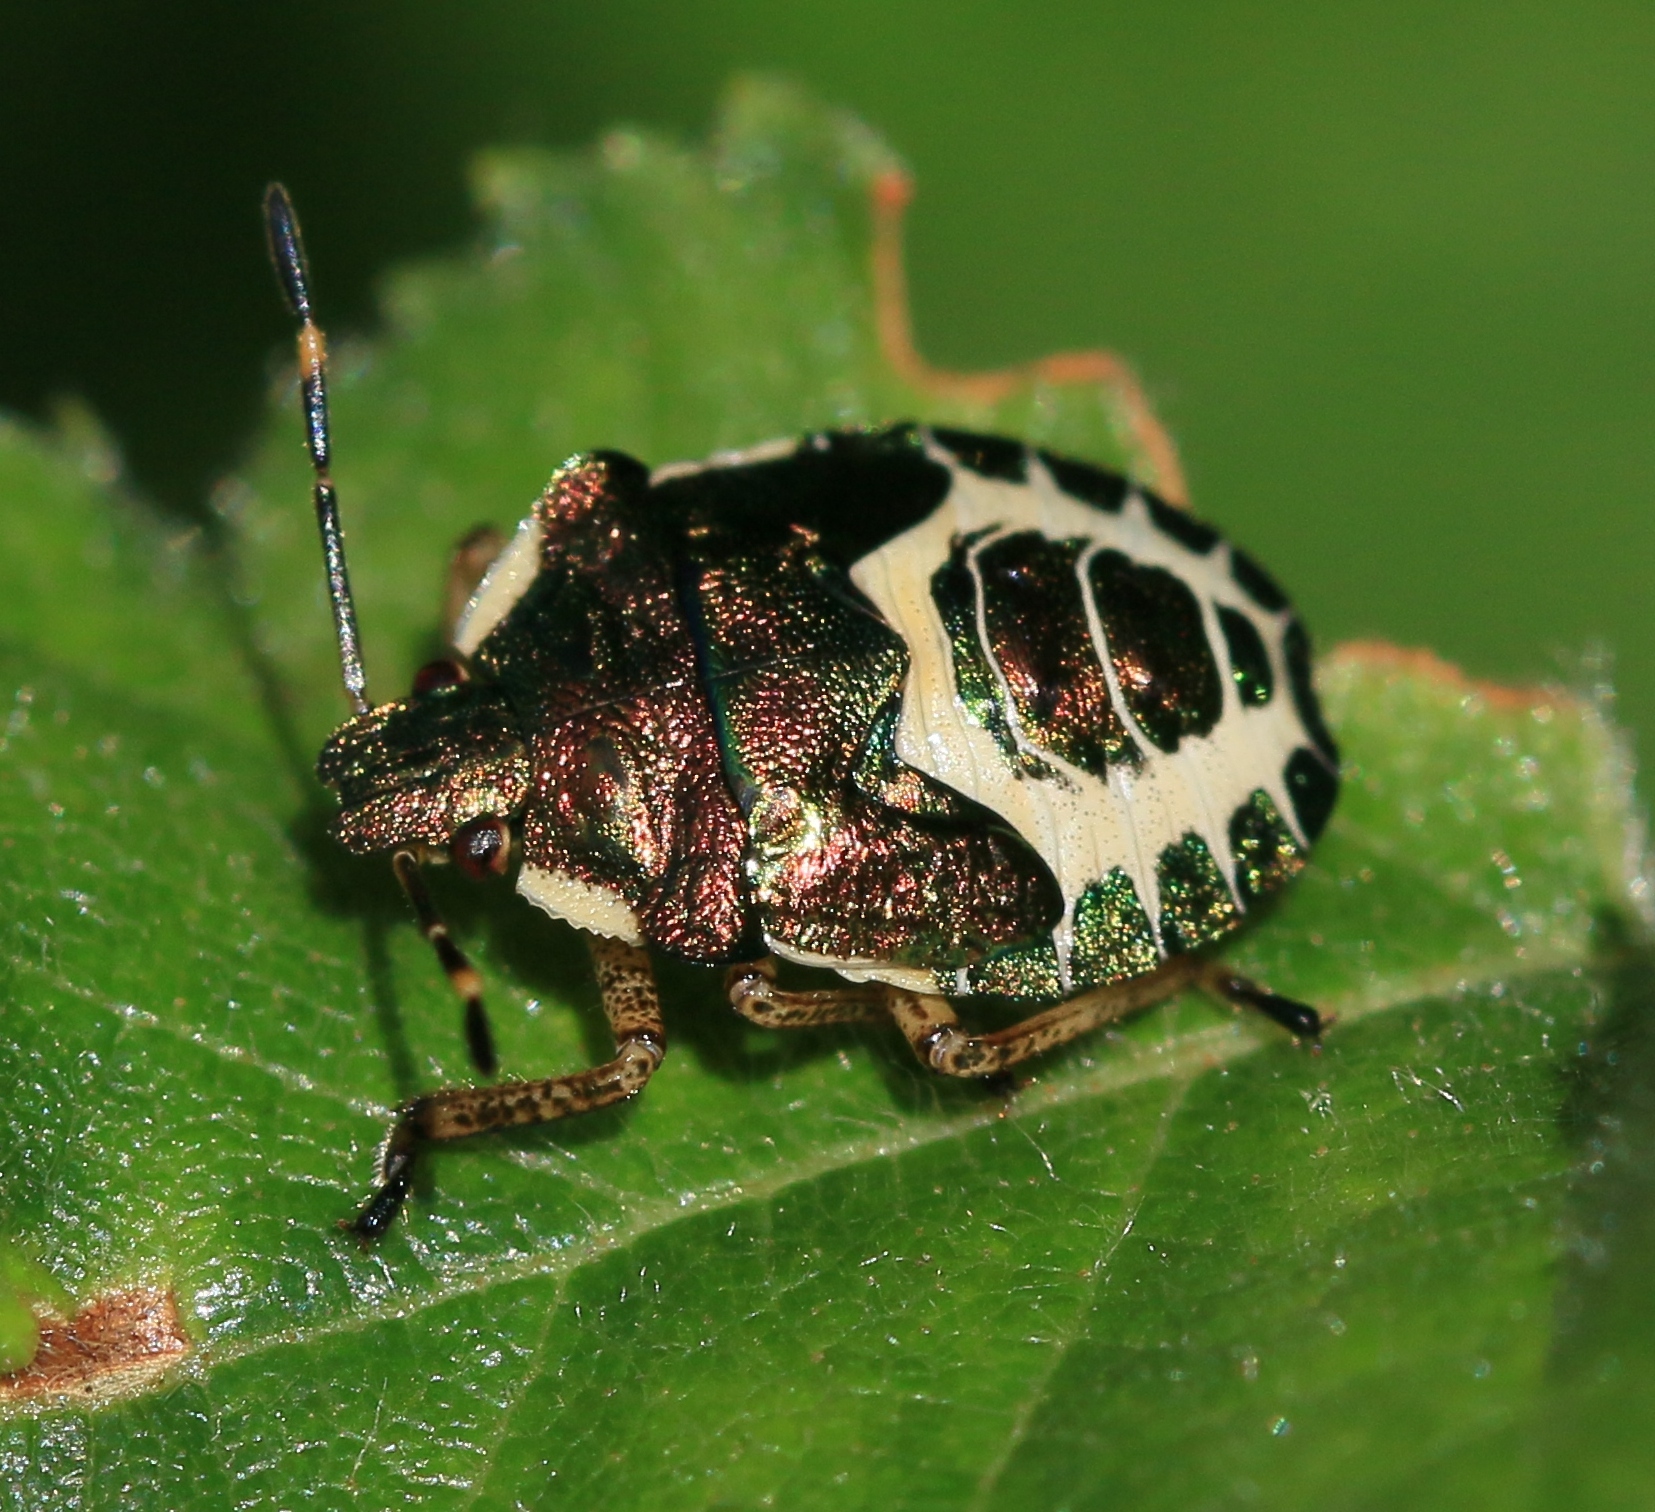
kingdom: Animalia
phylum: Arthropoda
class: Insecta
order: Hemiptera
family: Pentatomidae
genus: Troilus
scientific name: Troilus luridus
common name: Bronze shieldbug
